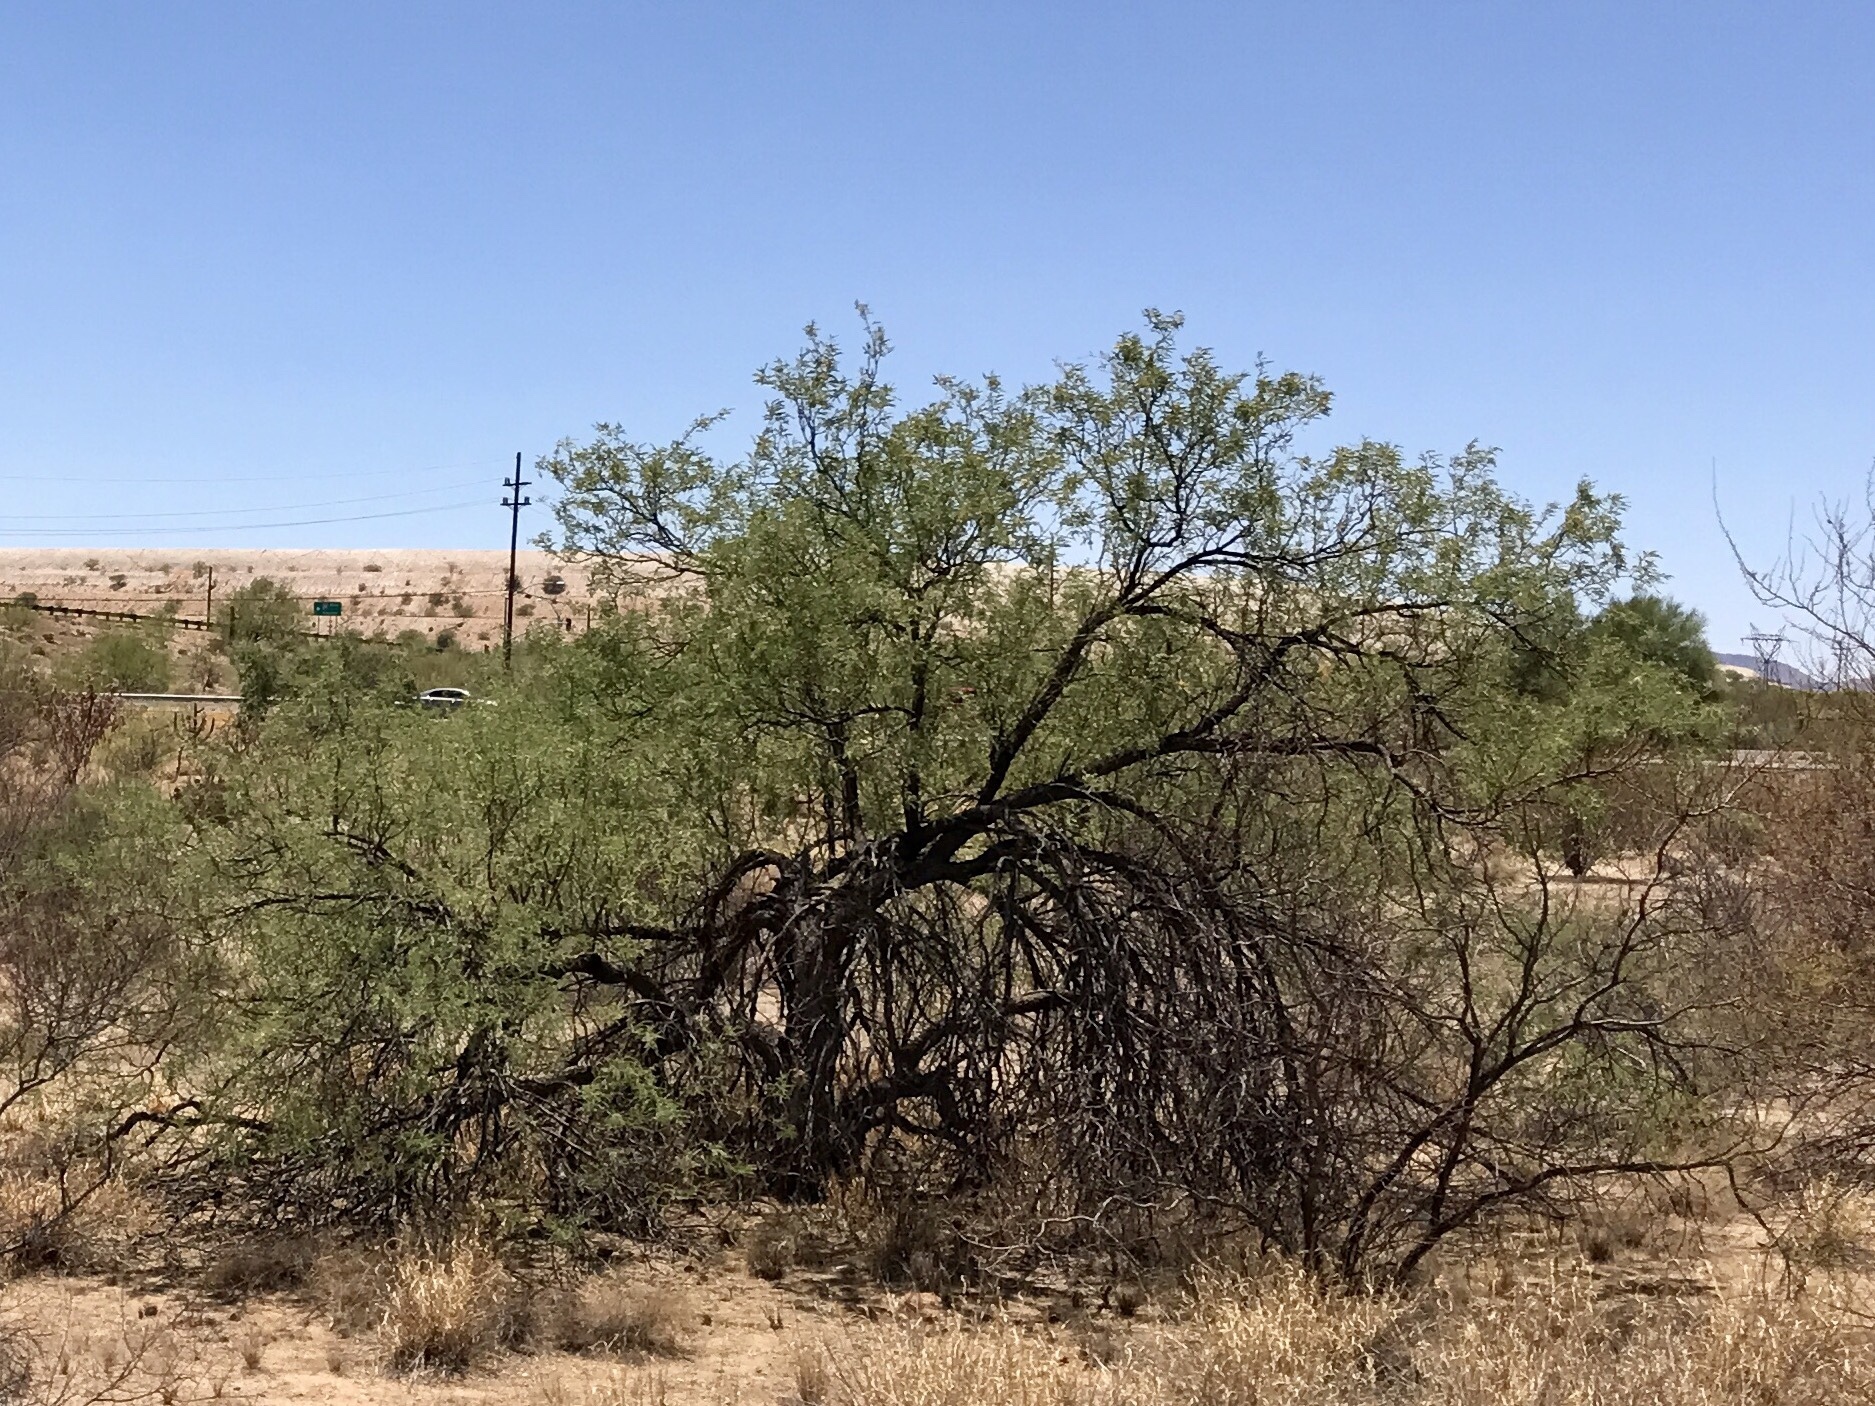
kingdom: Plantae
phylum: Tracheophyta
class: Magnoliopsida
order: Fabales
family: Fabaceae
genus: Prosopis
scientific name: Prosopis velutina
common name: Velvet mesquite
